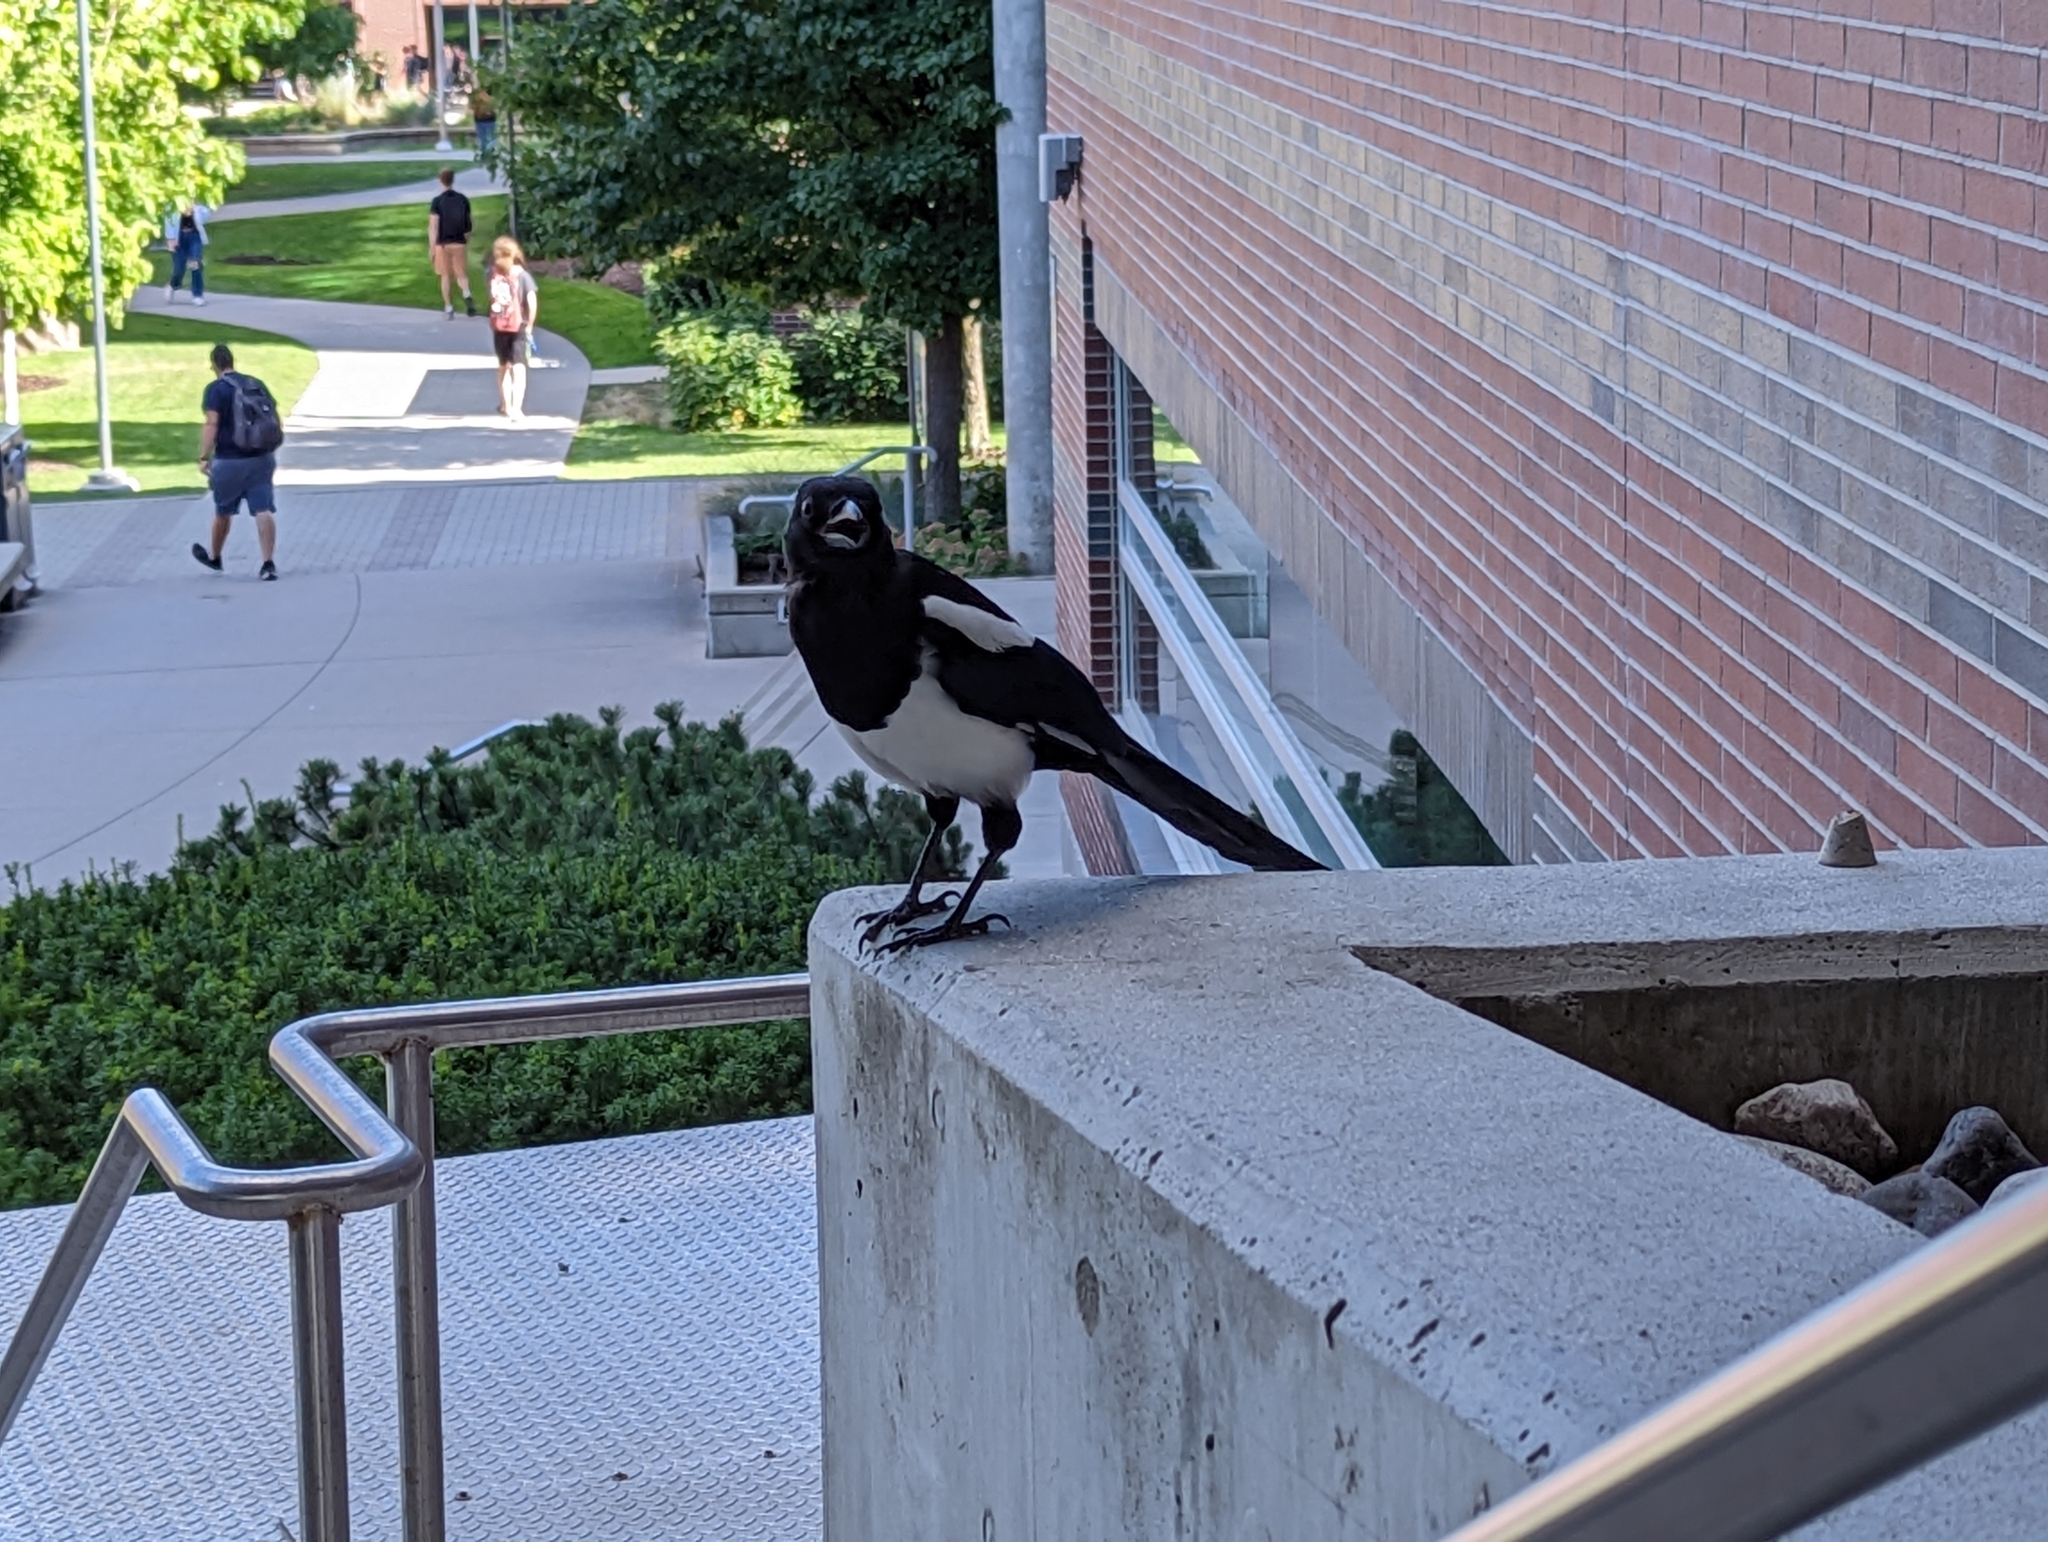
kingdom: Animalia
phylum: Chordata
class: Aves
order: Passeriformes
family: Corvidae
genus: Pica
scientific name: Pica hudsonia
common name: Black-billed magpie
